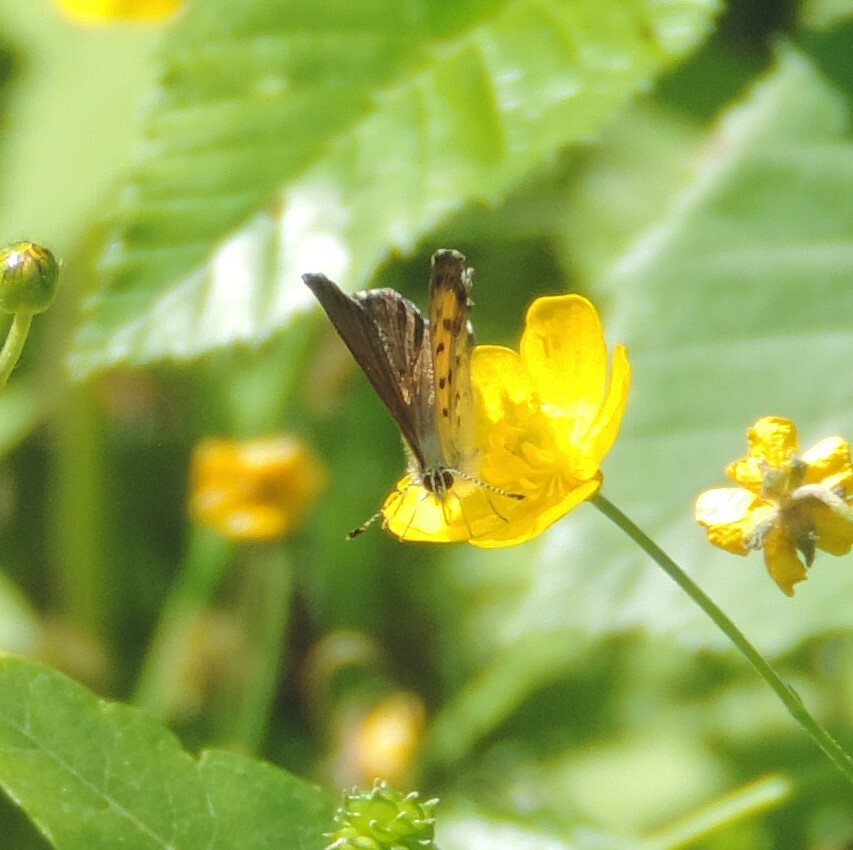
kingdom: Animalia
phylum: Arthropoda
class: Insecta
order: Lepidoptera
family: Lycaenidae
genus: Tharsalea
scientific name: Tharsalea mariposa
